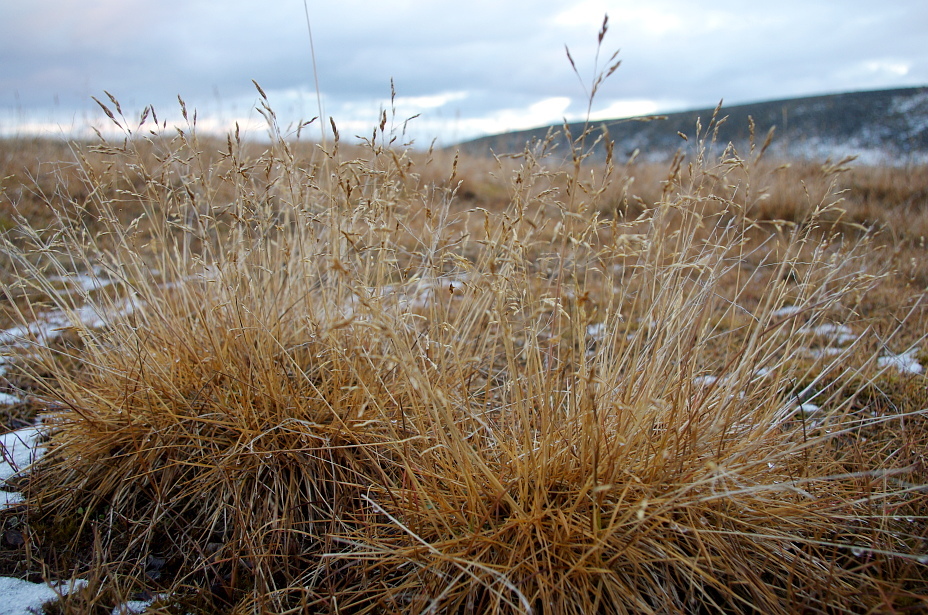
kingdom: Plantae
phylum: Tracheophyta
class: Liliopsida
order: Poales
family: Poaceae
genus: Deschampsia
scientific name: Deschampsia cespitosa
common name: Tufted hair-grass
